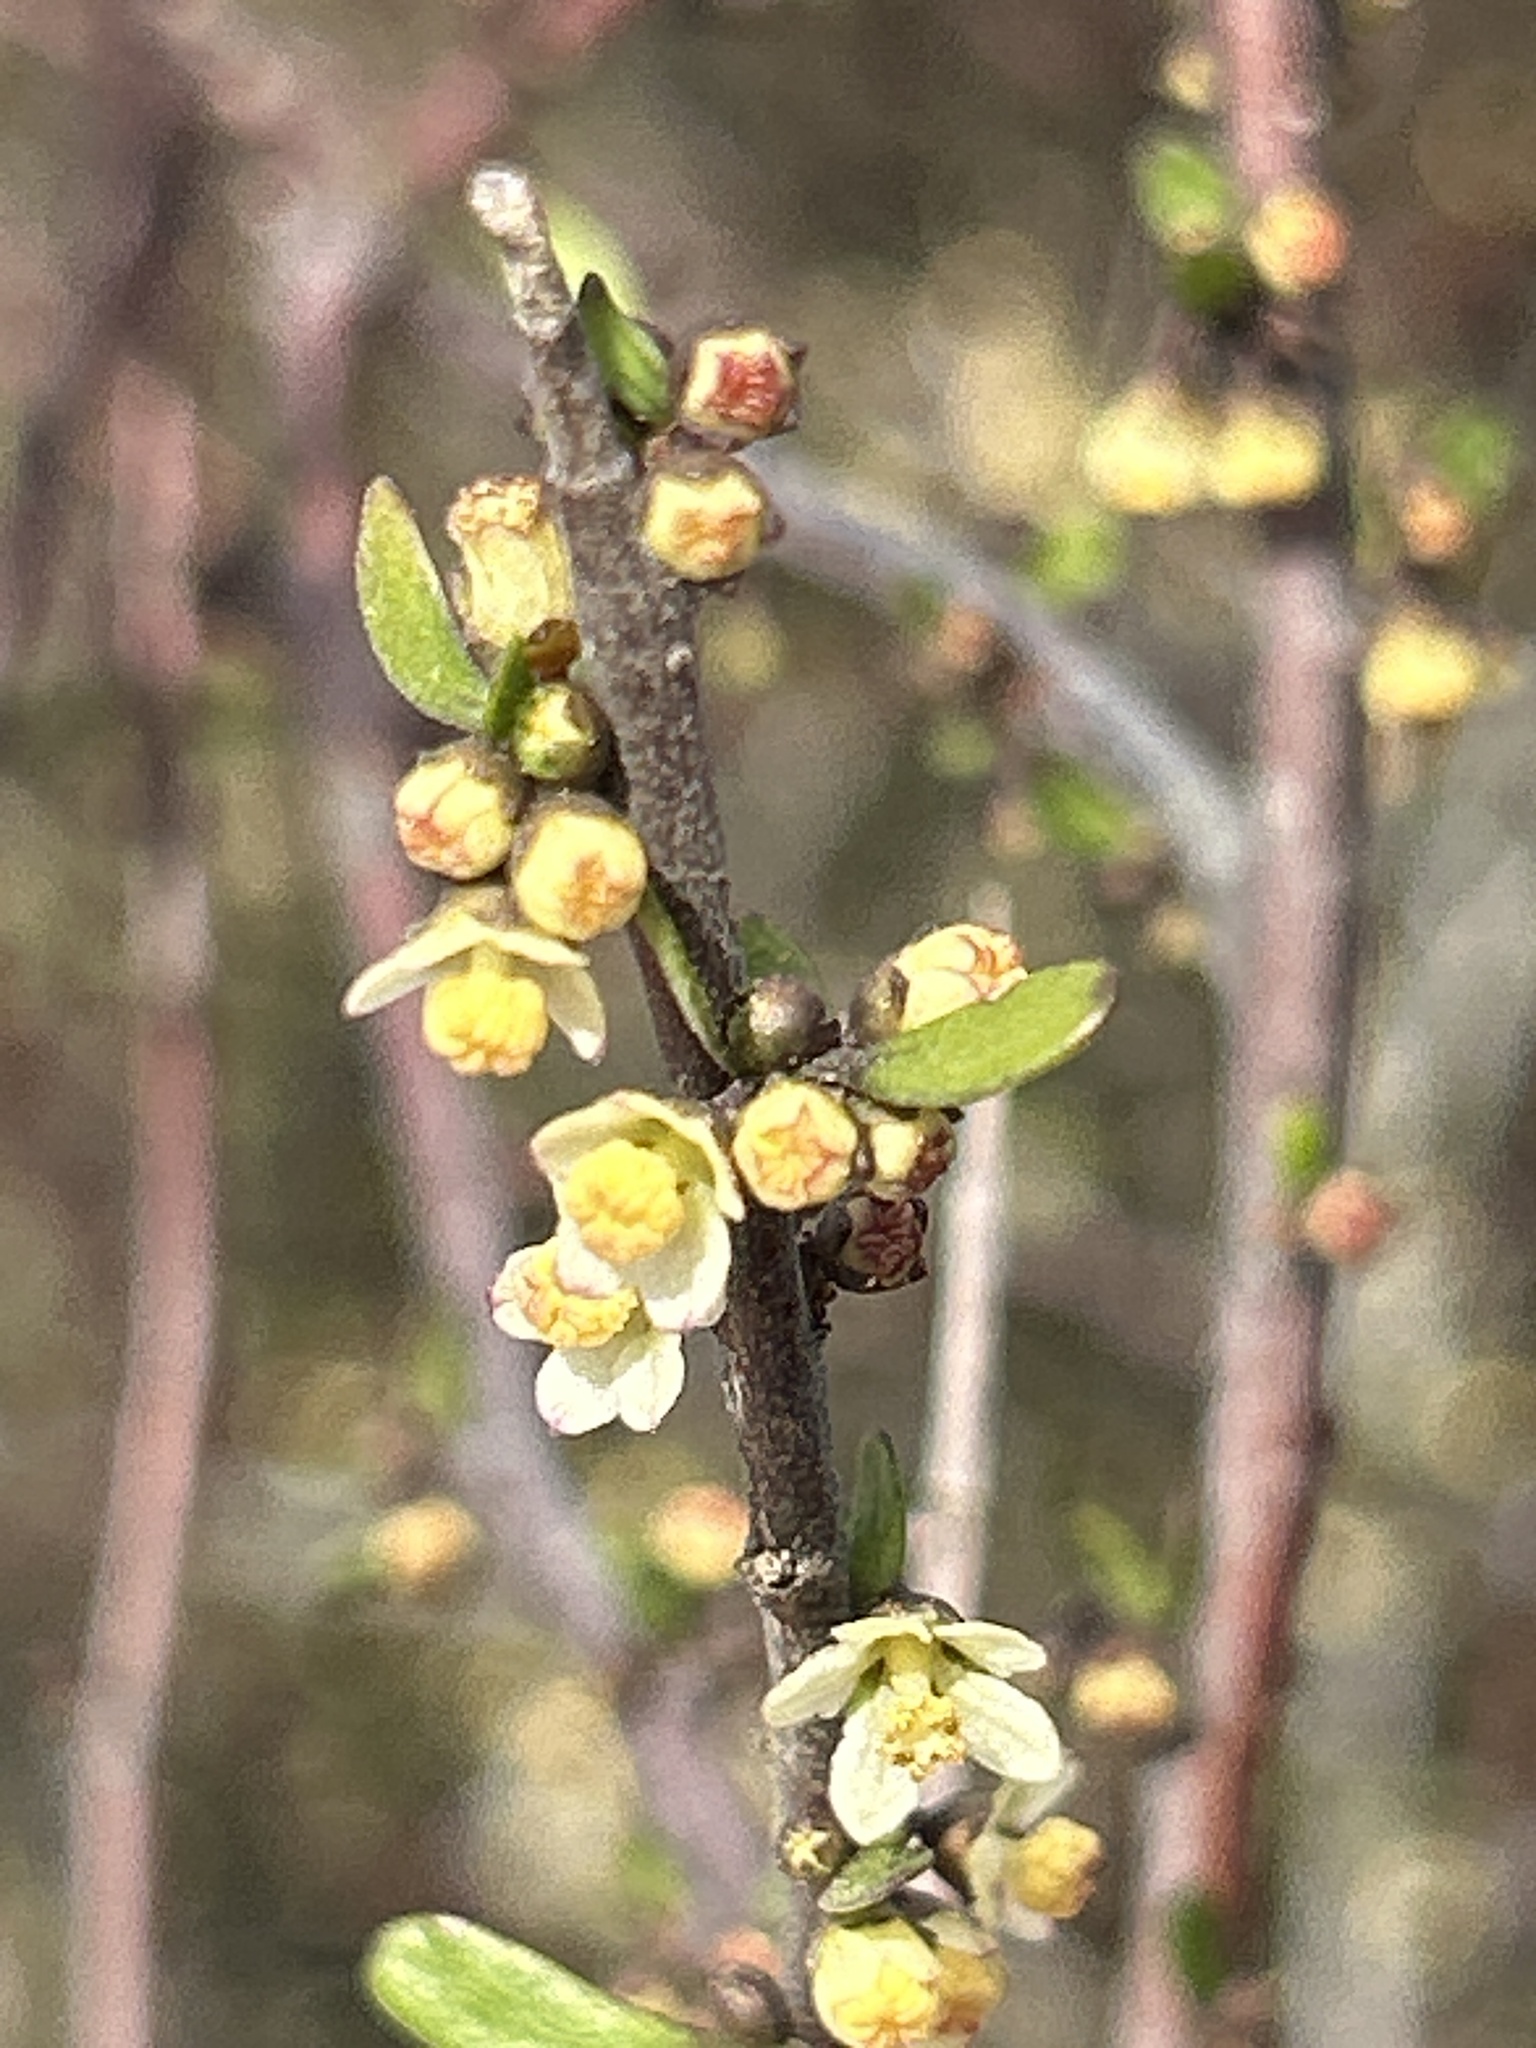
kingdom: Plantae
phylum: Tracheophyta
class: Magnoliopsida
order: Malvales
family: Malvaceae
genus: Plagianthus
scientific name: Plagianthus divaricatus
